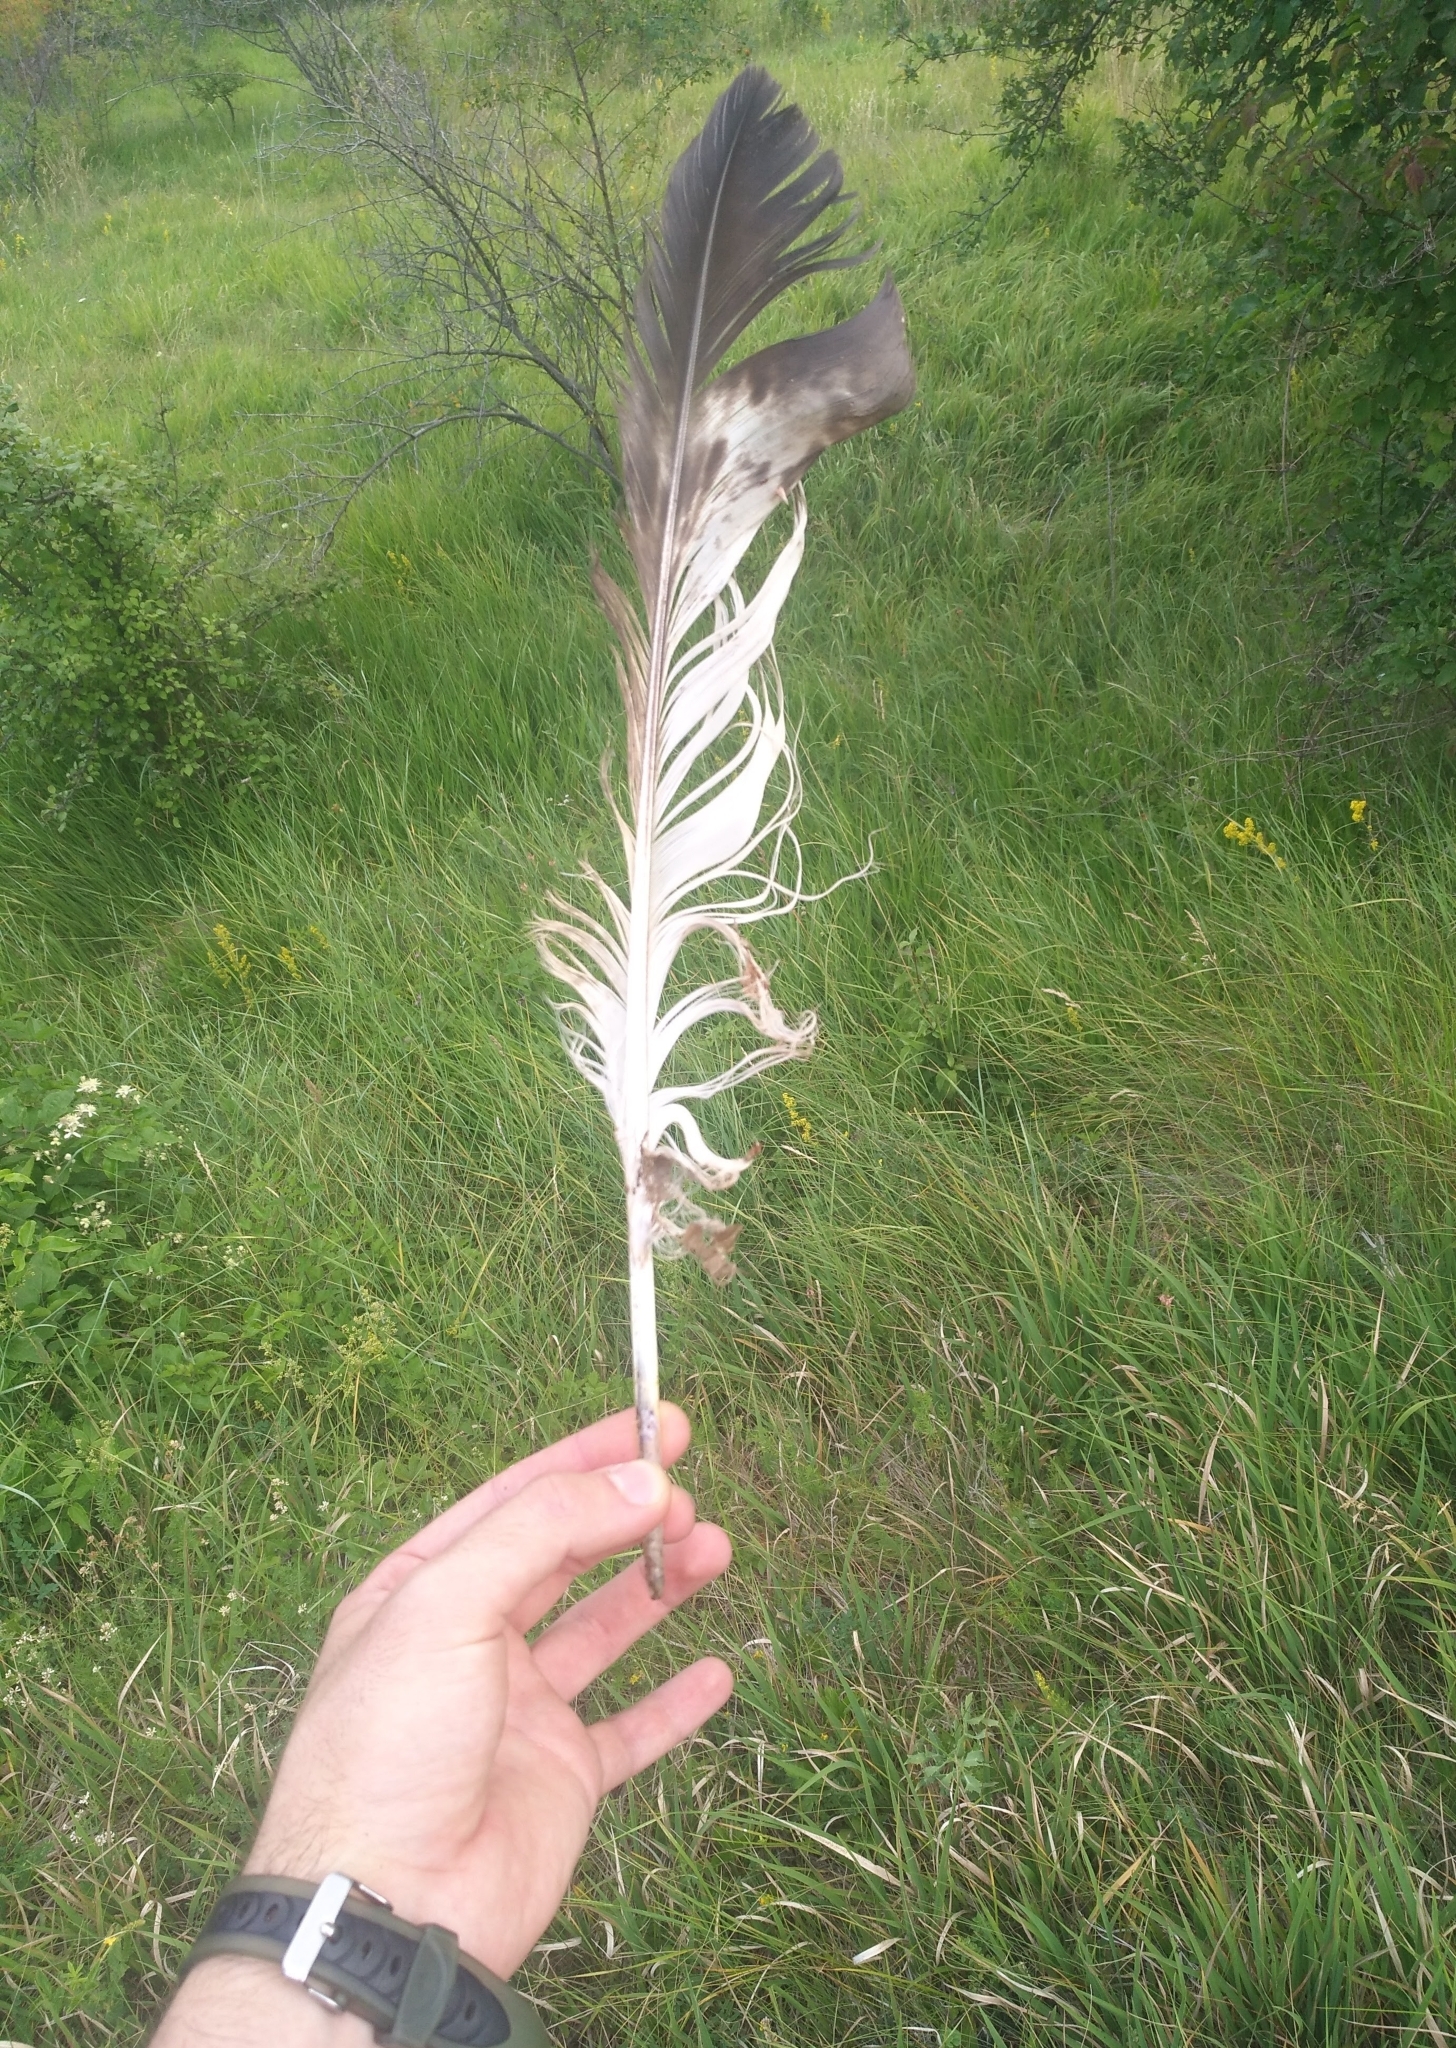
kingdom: Animalia
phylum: Chordata
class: Aves
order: Accipitriformes
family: Accipitridae
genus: Aquila
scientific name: Aquila chrysaetos
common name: Golden eagle
